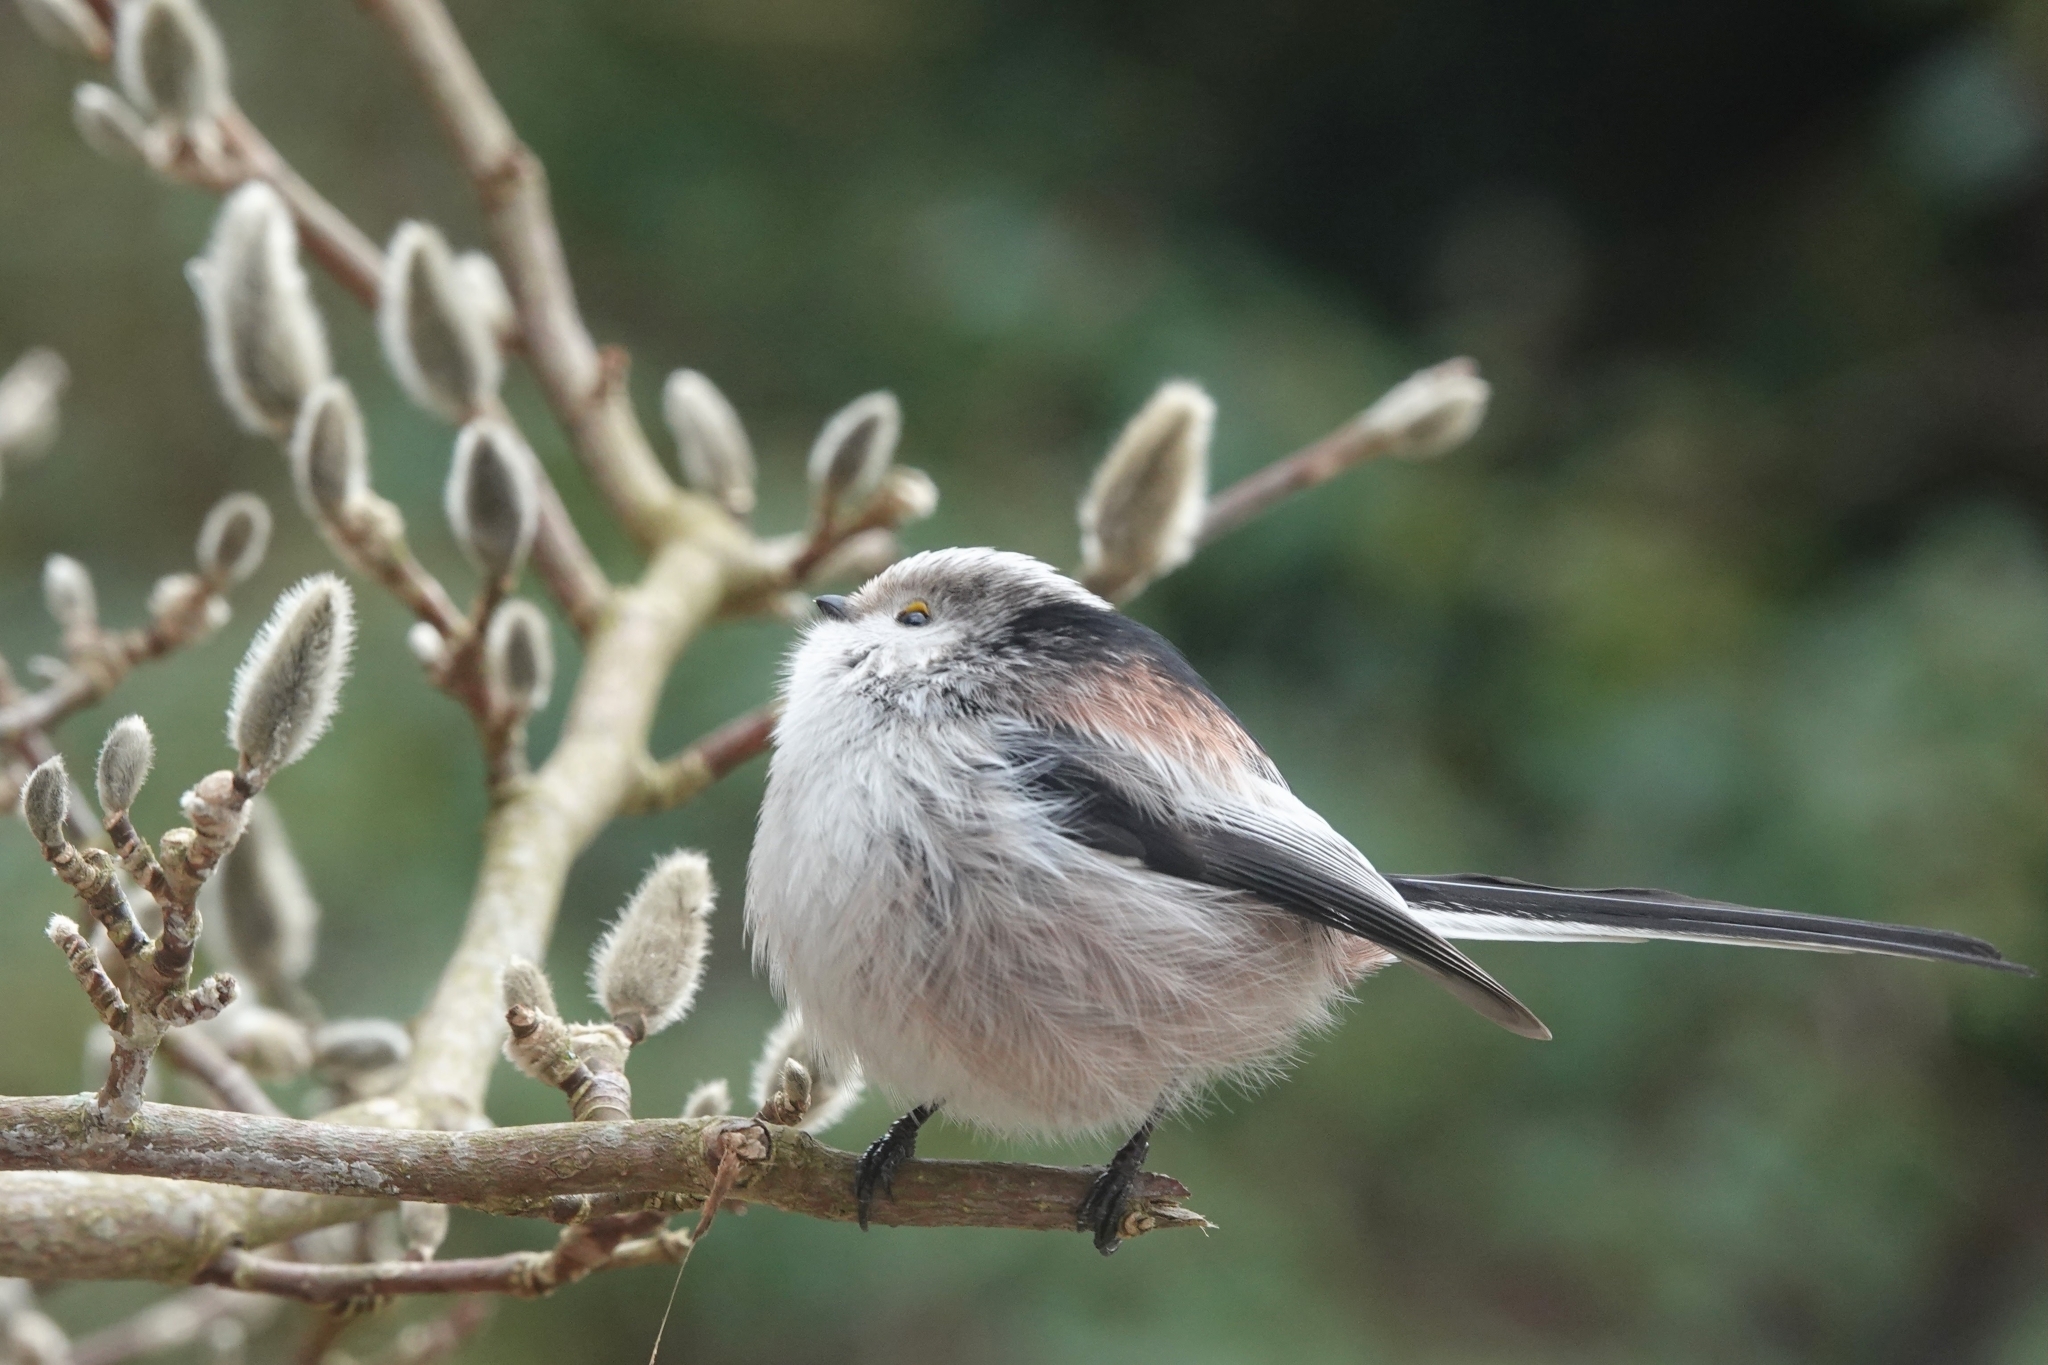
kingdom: Animalia
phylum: Chordata
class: Aves
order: Passeriformes
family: Aegithalidae
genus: Aegithalos
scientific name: Aegithalos caudatus
